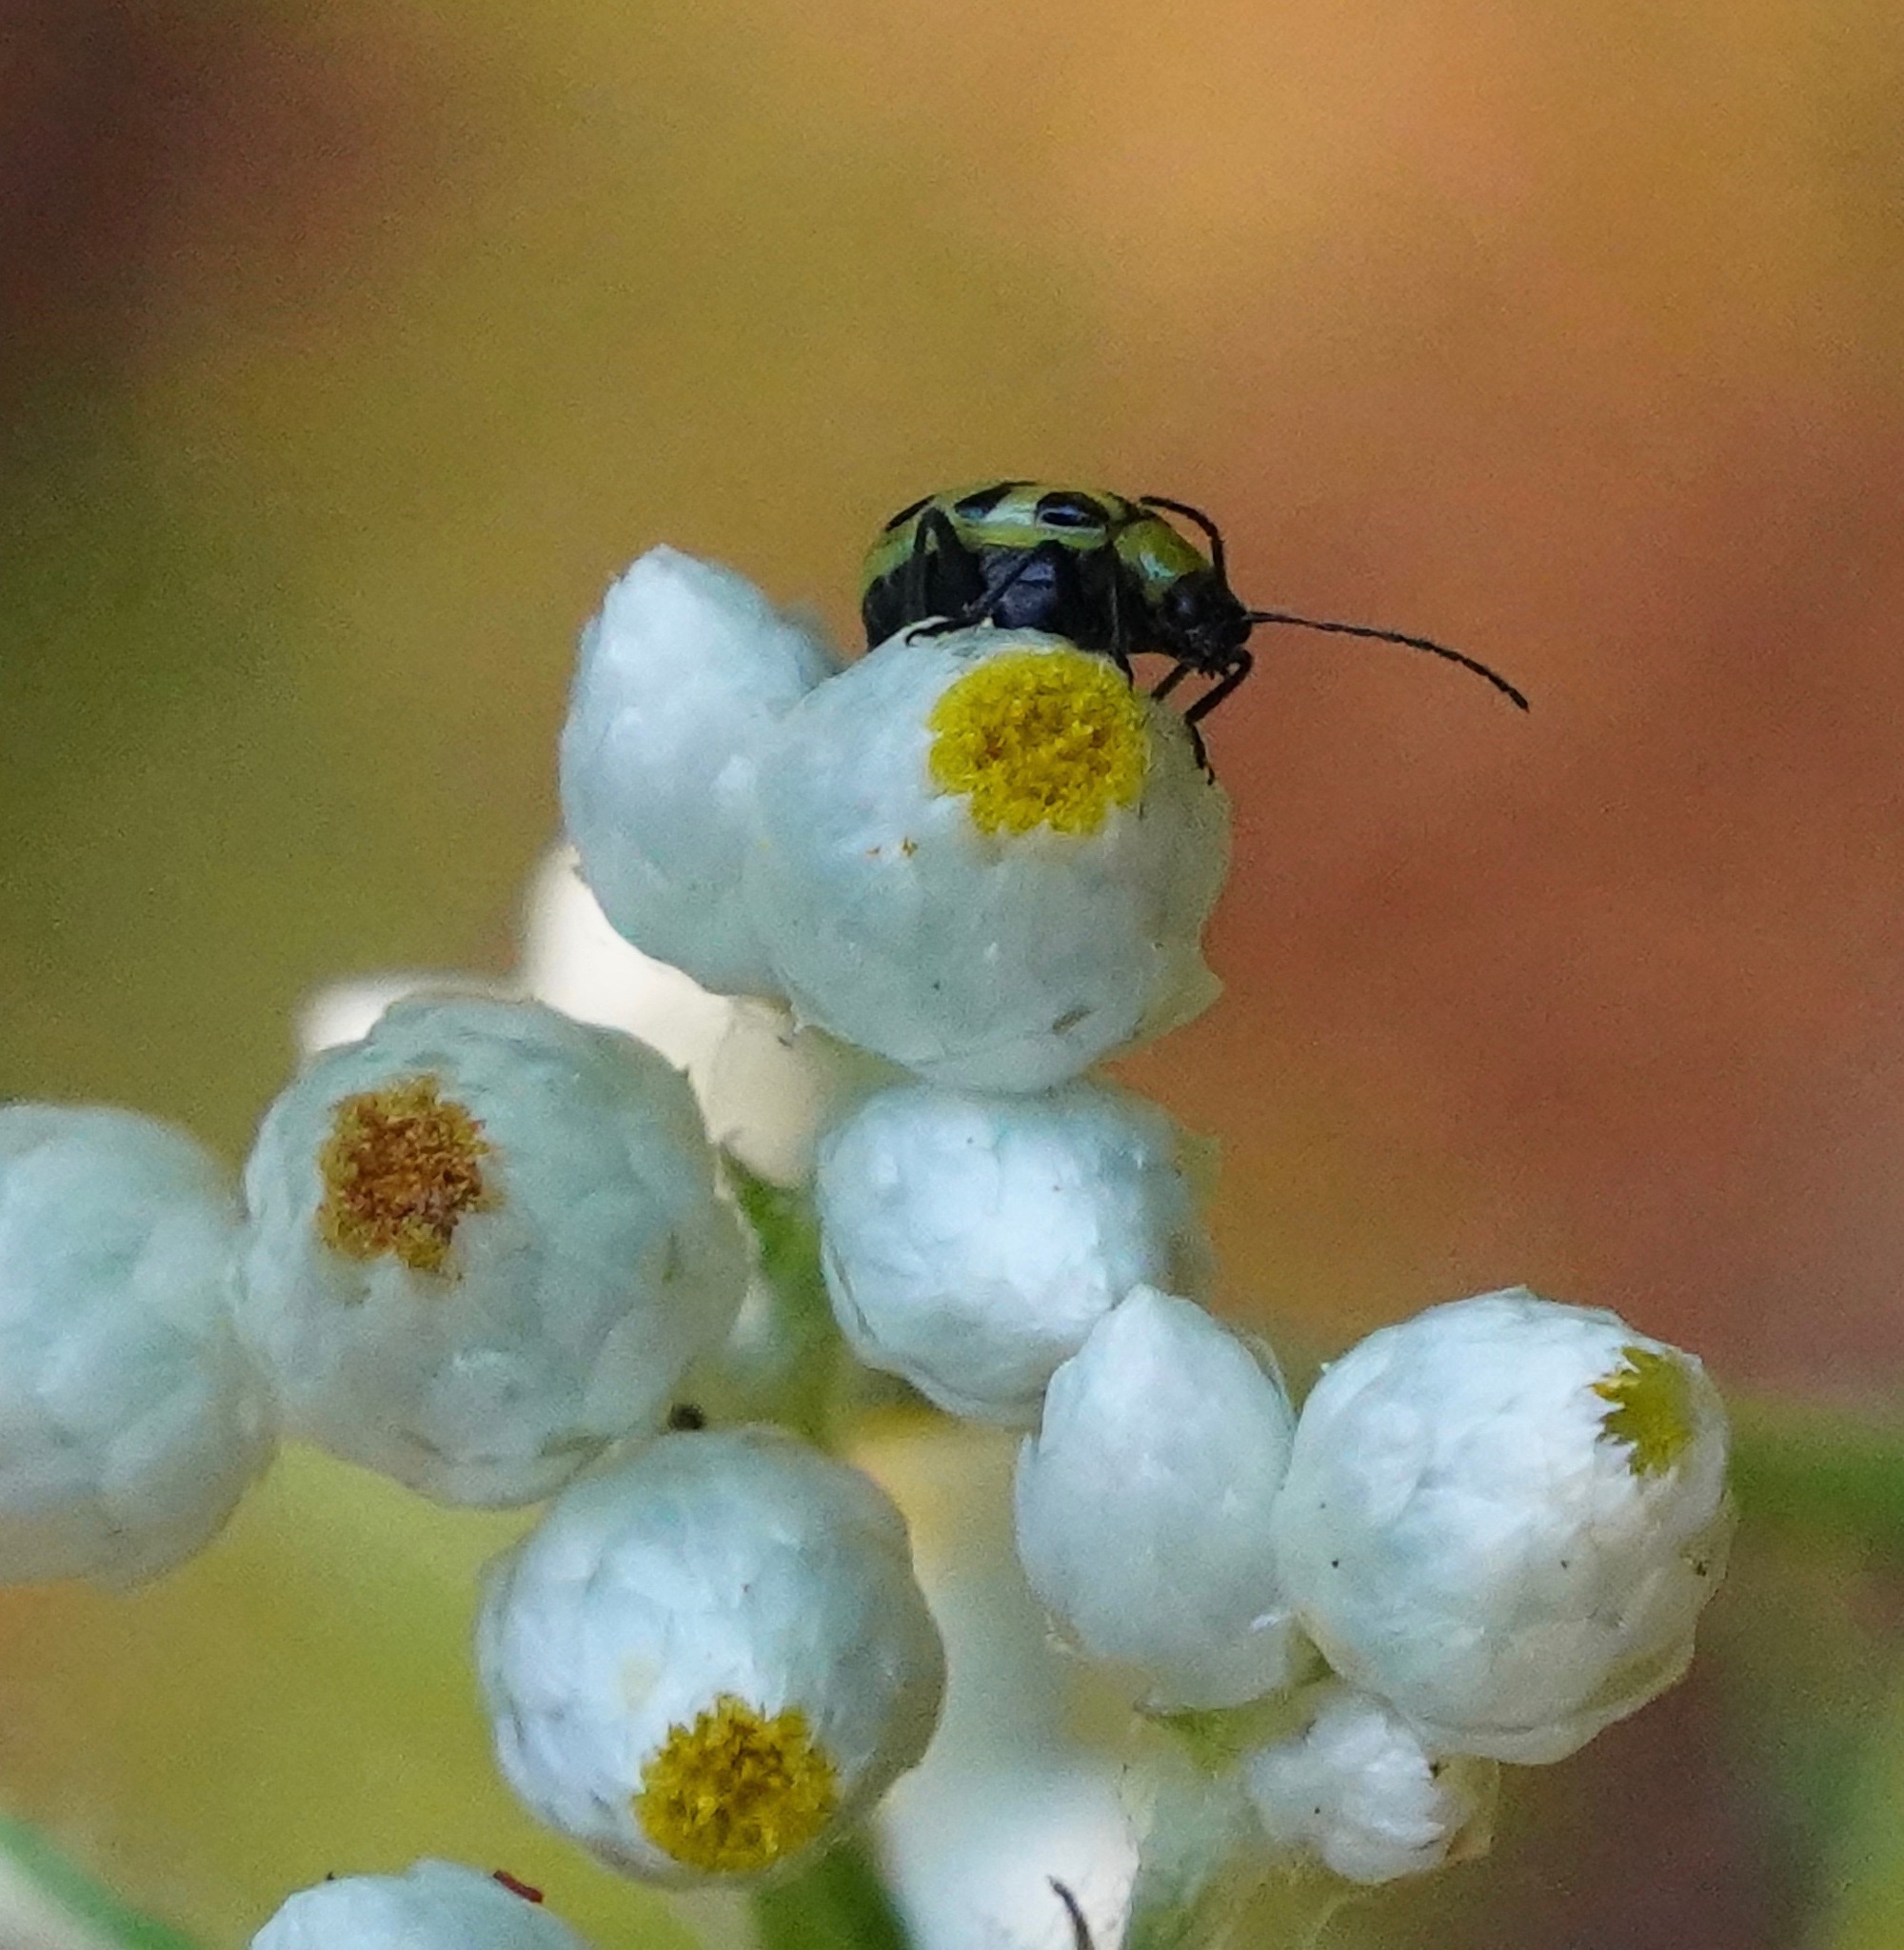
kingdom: Animalia
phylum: Arthropoda
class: Insecta
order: Coleoptera
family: Chrysomelidae
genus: Diabrotica
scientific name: Diabrotica undecimpunctata
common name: Spotted cucumber beetle
